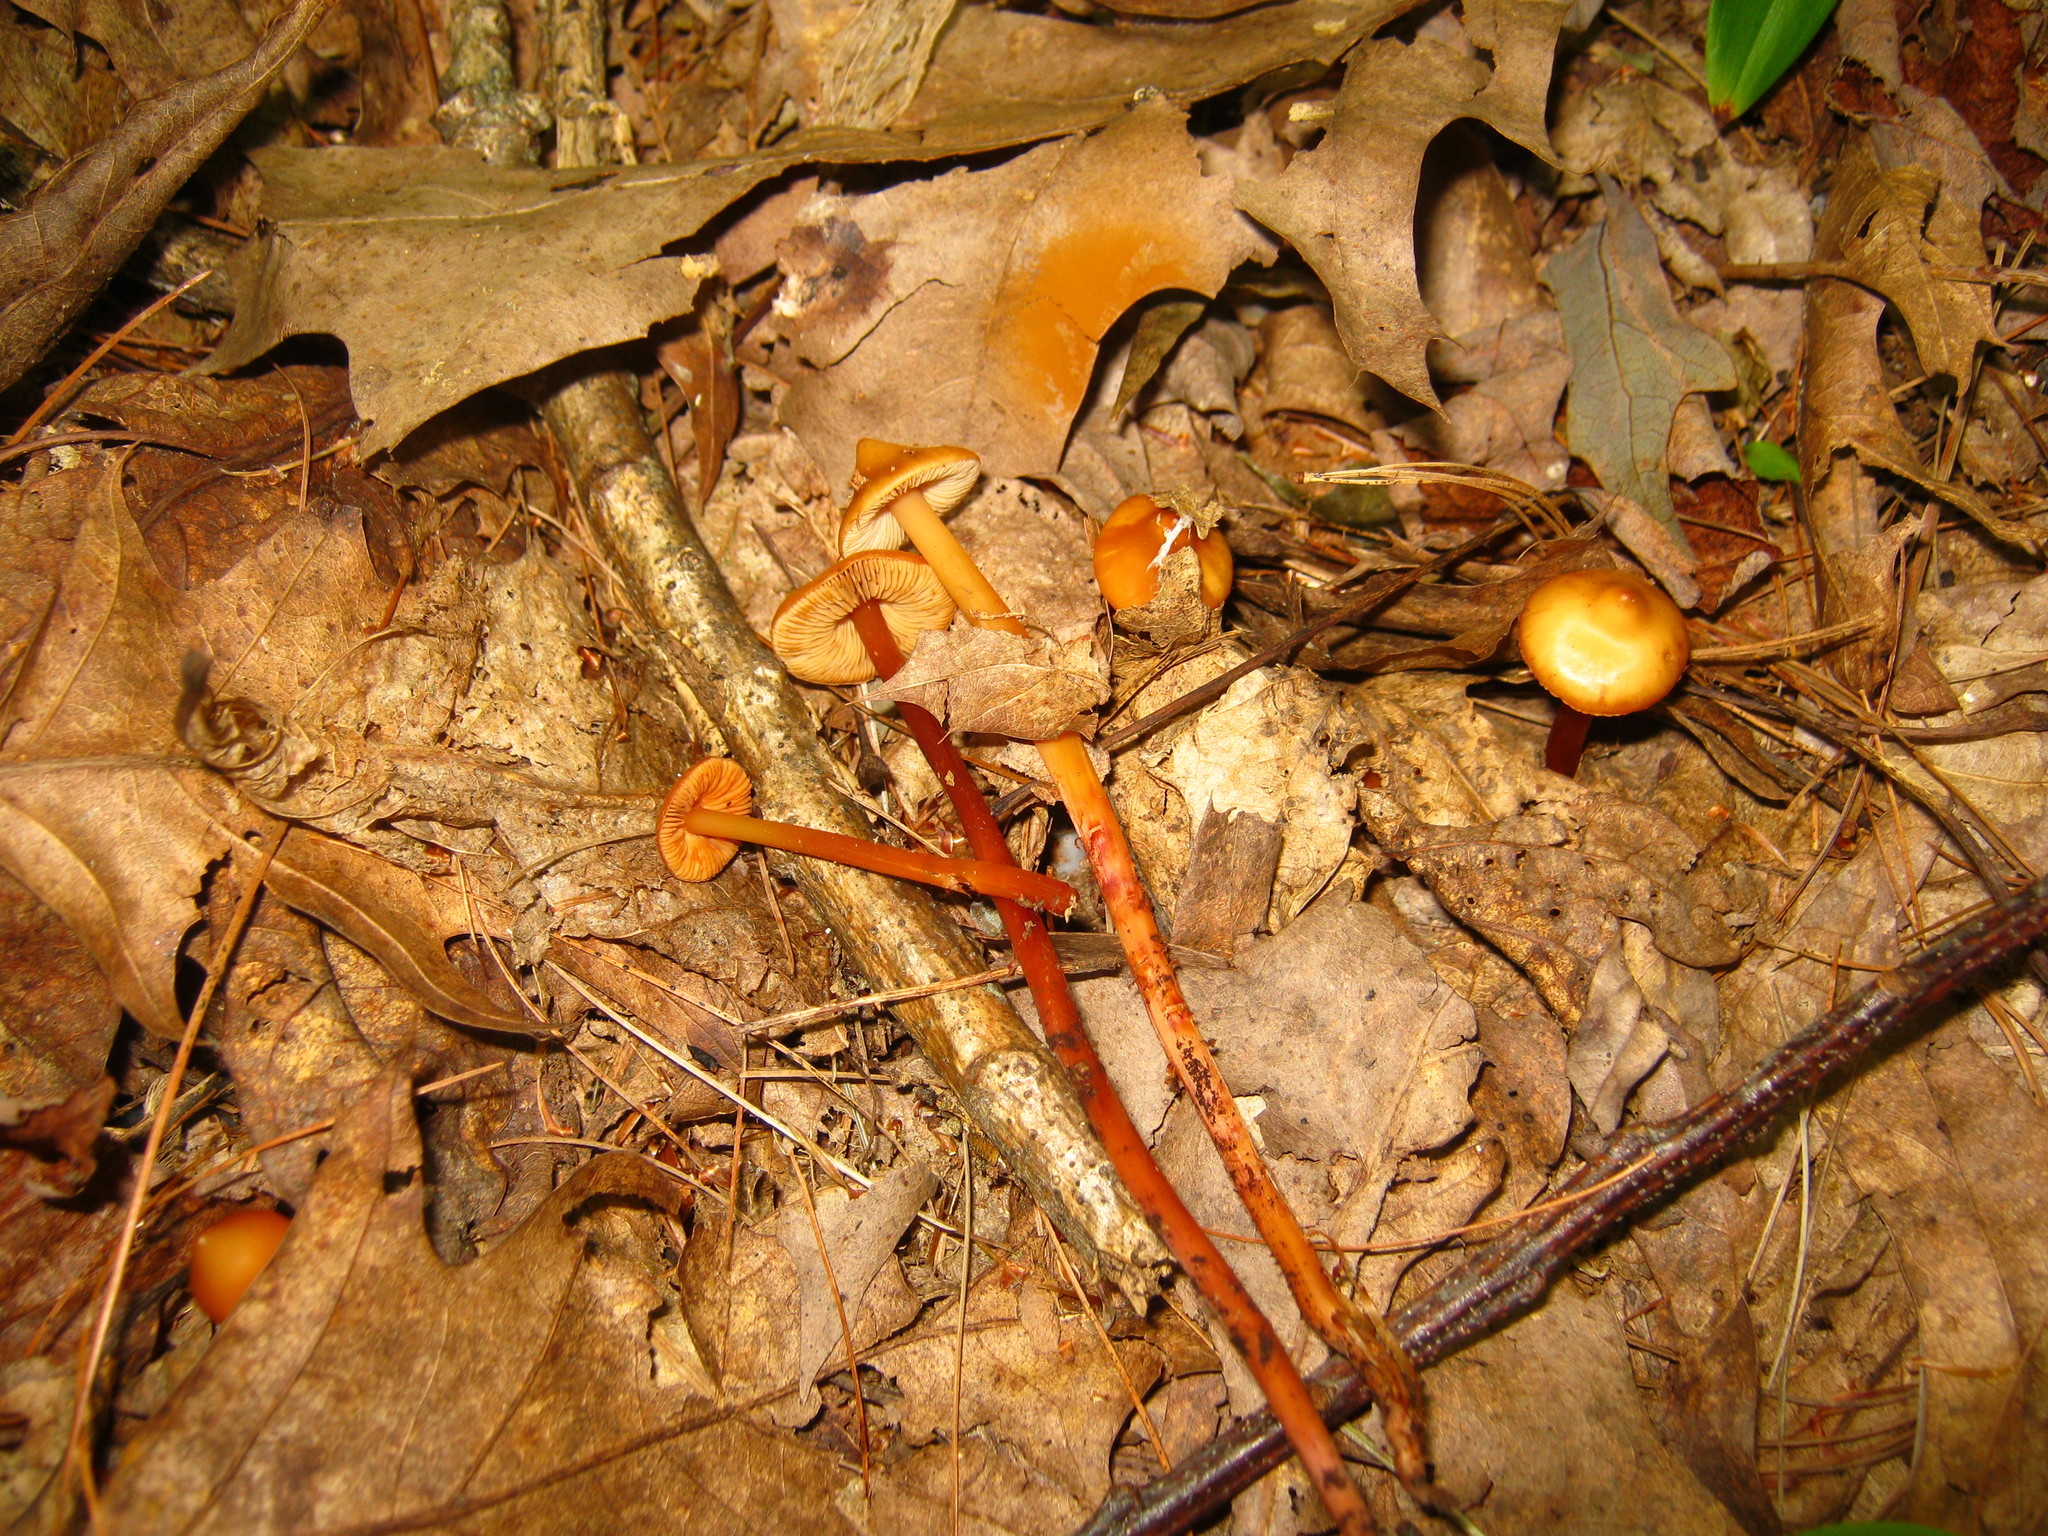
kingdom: Fungi
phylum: Basidiomycota
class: Agaricomycetes
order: Agaricales
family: Hymenogastraceae
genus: Phaeocollybia
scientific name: Phaeocollybia christinae
